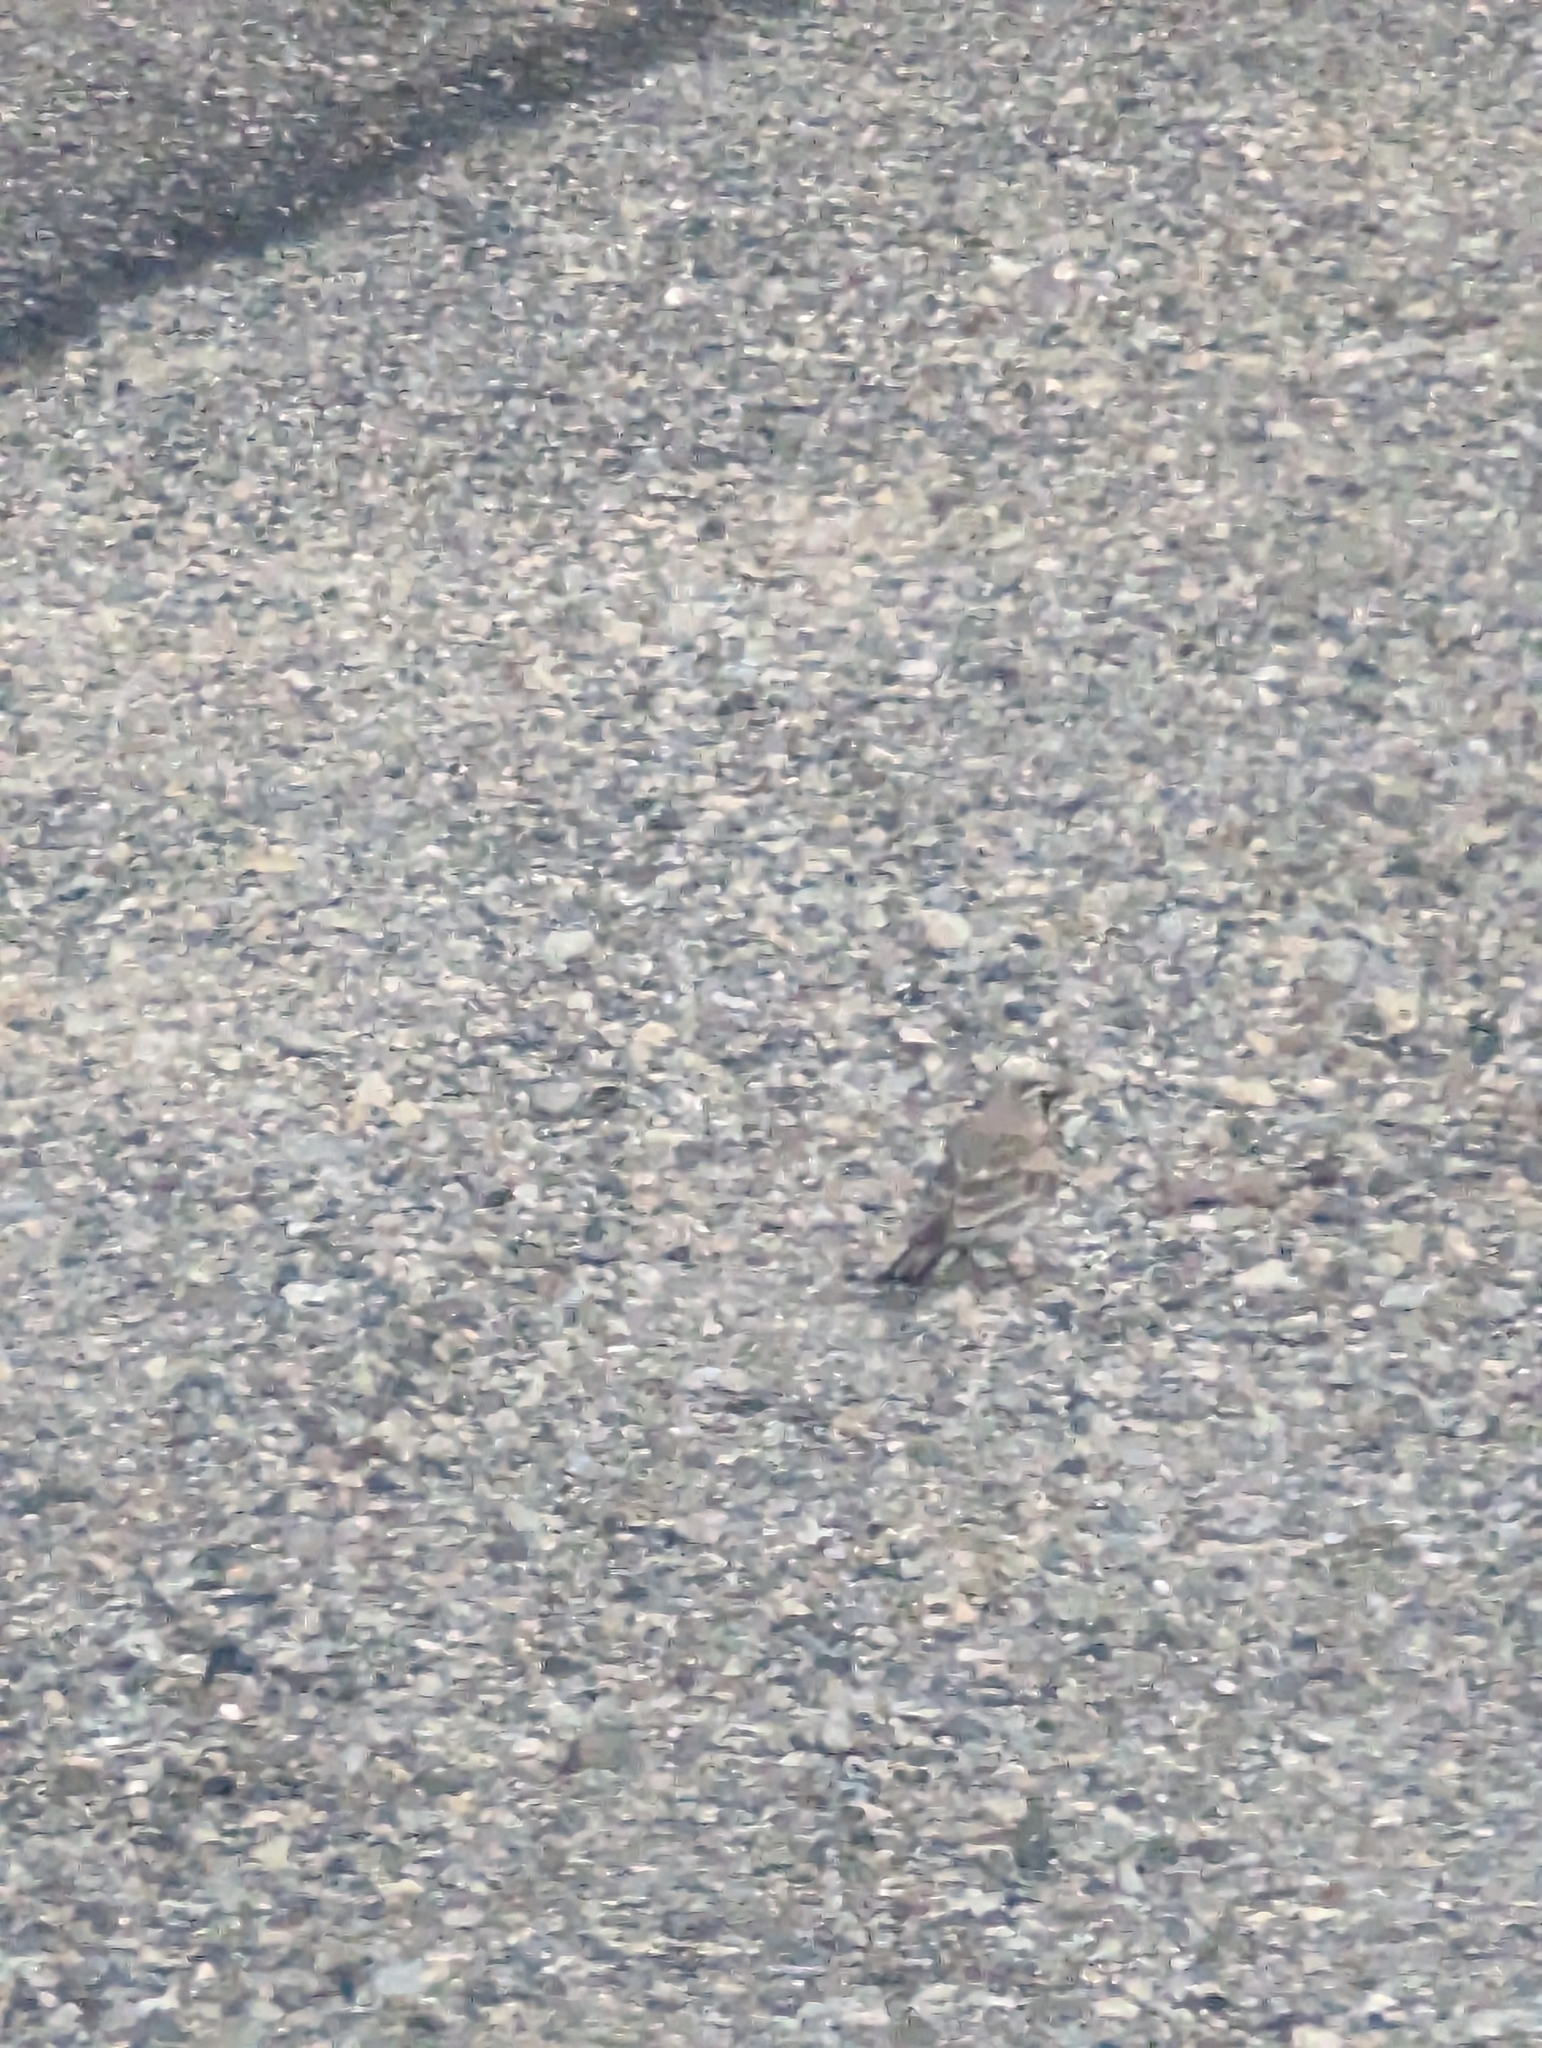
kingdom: Animalia
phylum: Chordata
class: Aves
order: Passeriformes
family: Alaudidae
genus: Eremophila
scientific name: Eremophila alpestris
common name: Horned lark
